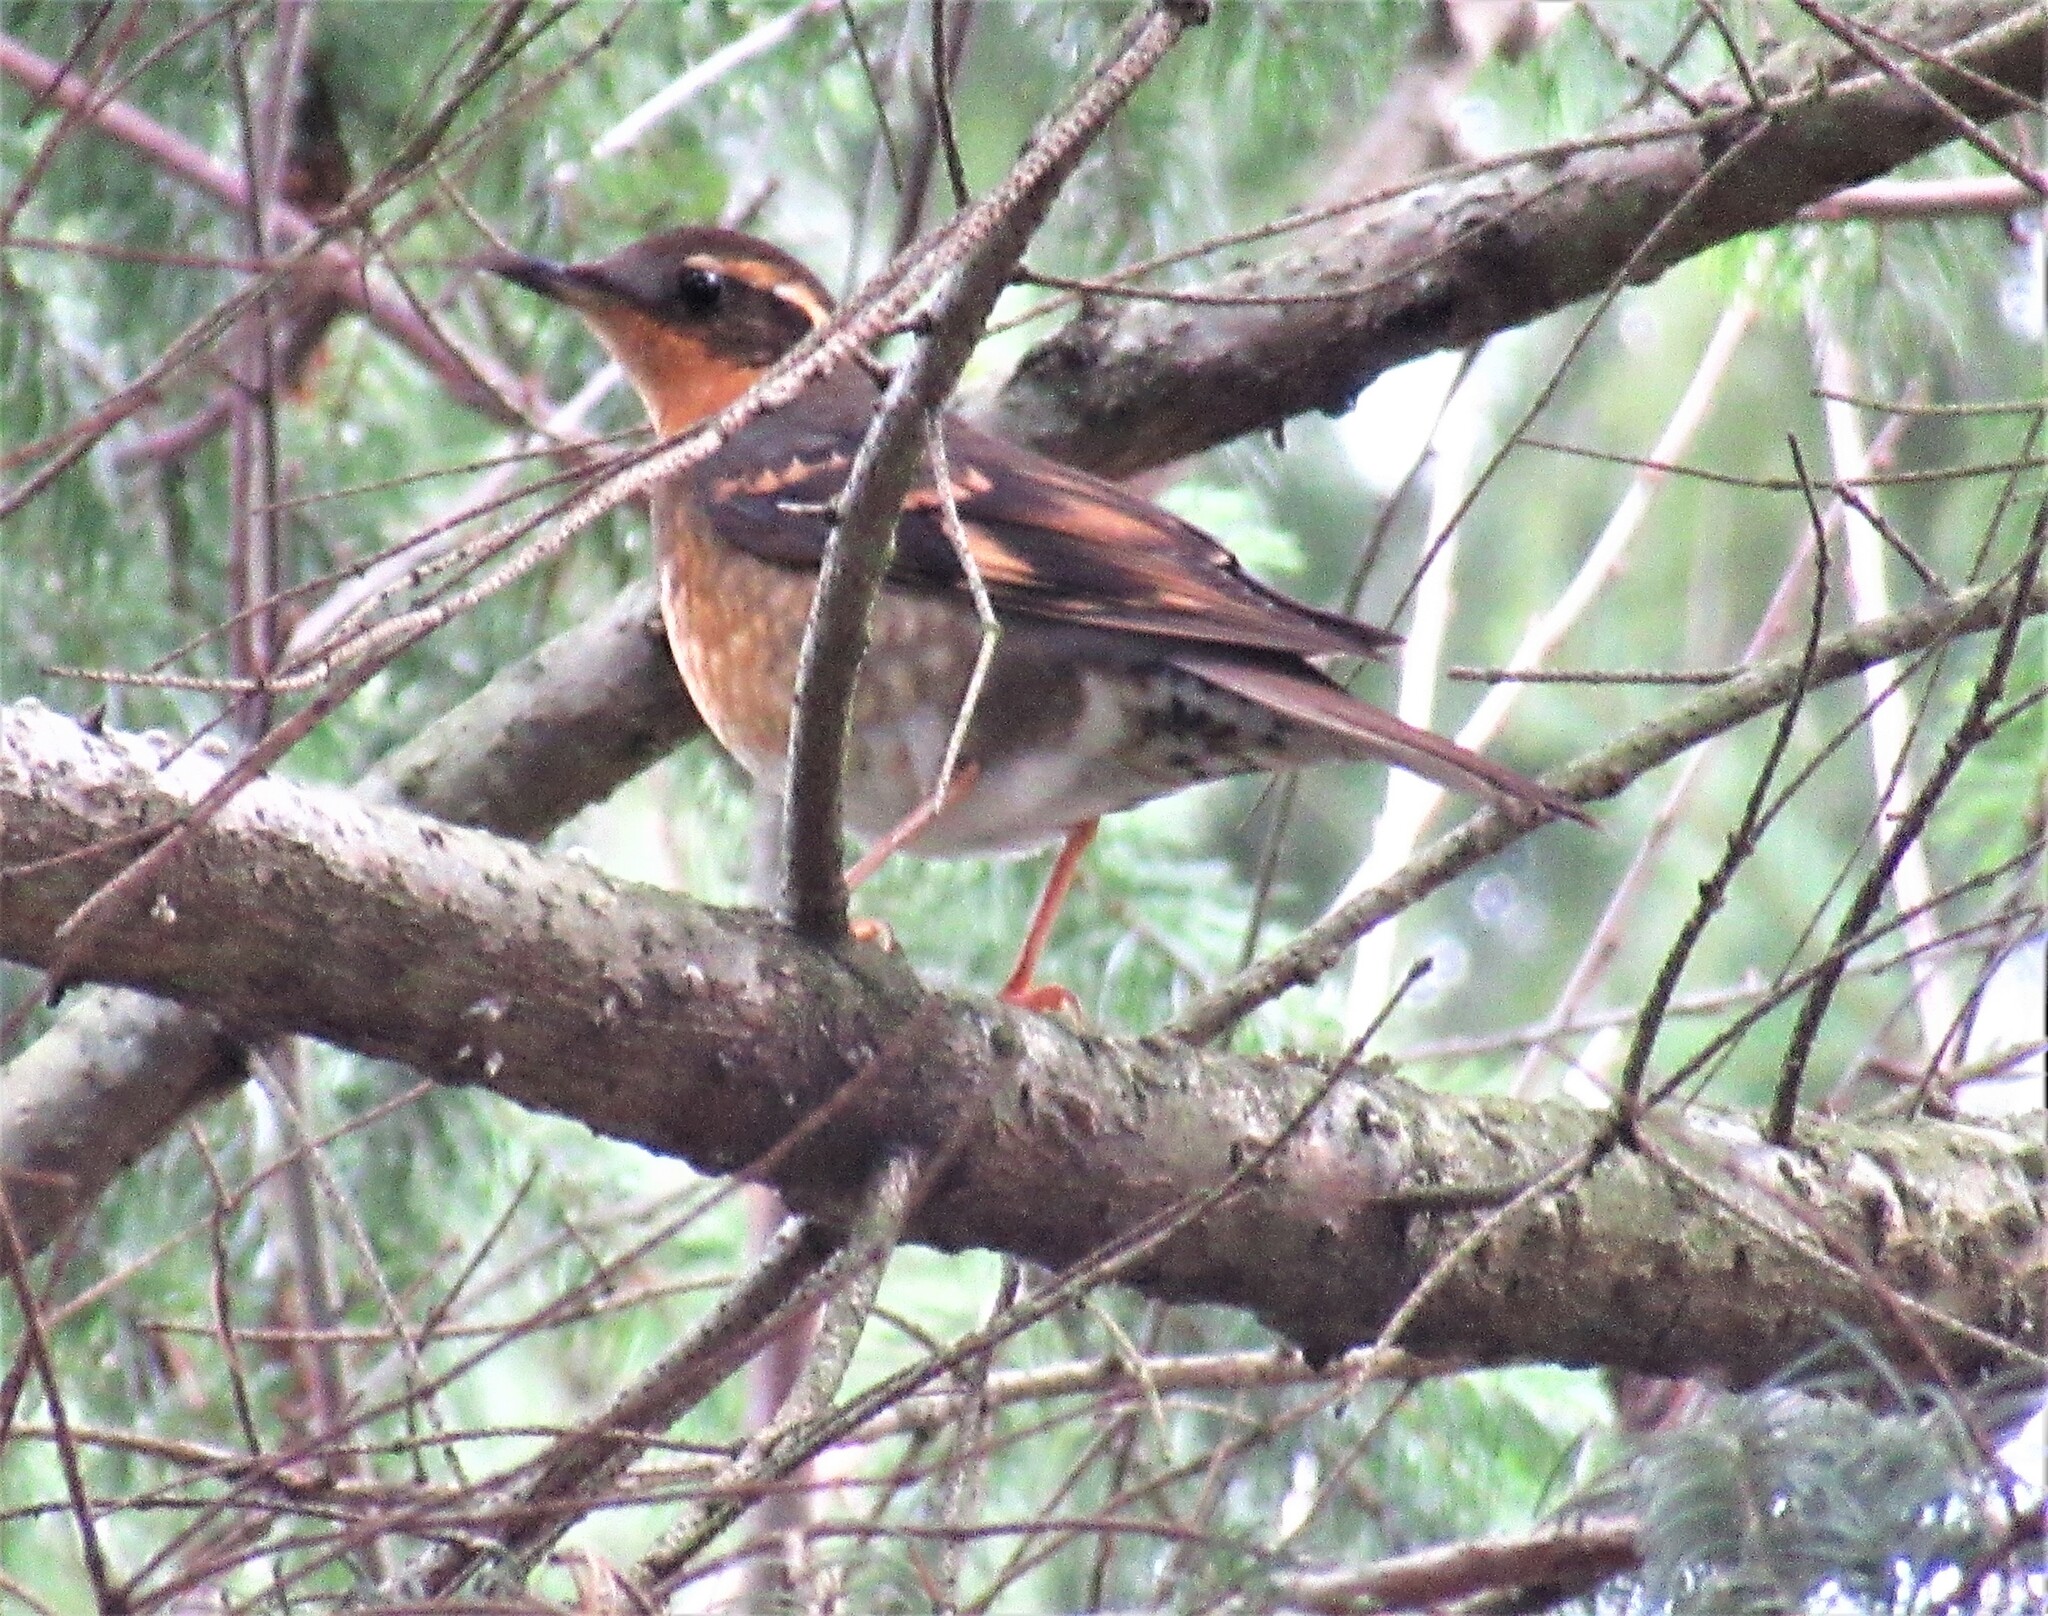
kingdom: Animalia
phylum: Chordata
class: Aves
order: Passeriformes
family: Turdidae
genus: Ixoreus
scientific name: Ixoreus naevius
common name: Varied thrush
